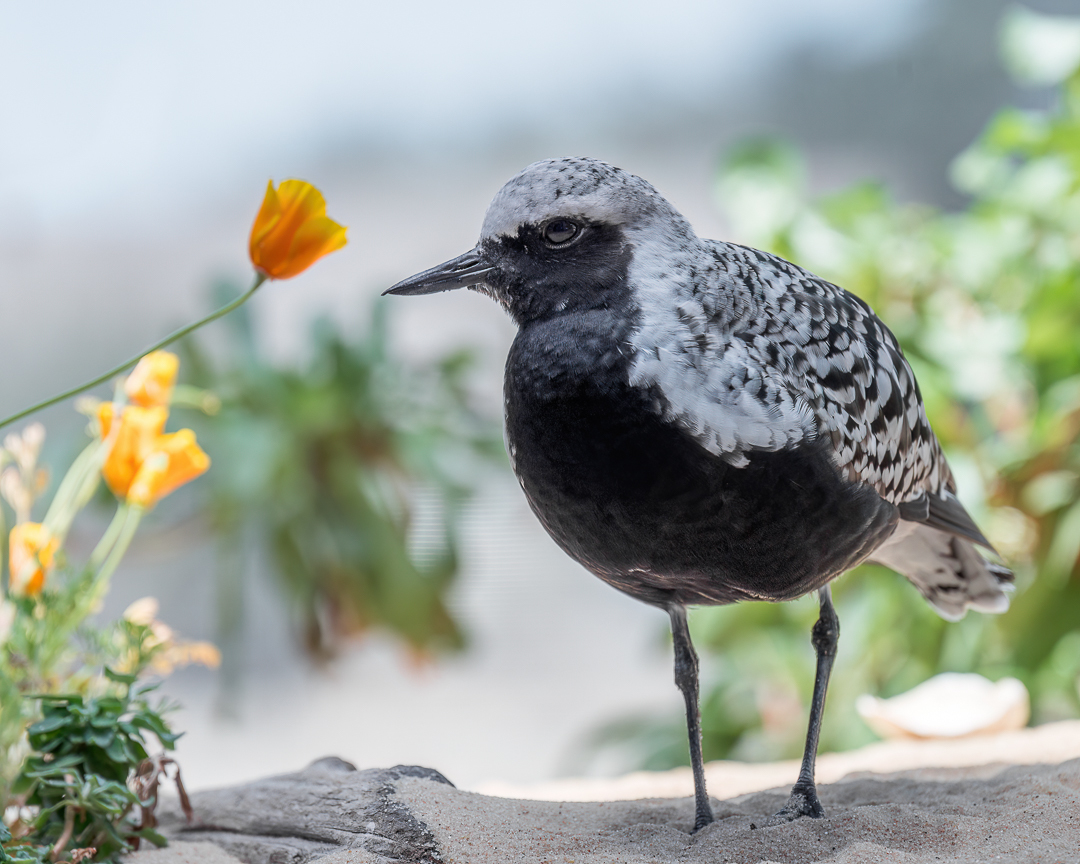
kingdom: Animalia
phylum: Chordata
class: Aves
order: Charadriiformes
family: Charadriidae
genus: Pluvialis
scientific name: Pluvialis squatarola
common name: Grey plover
